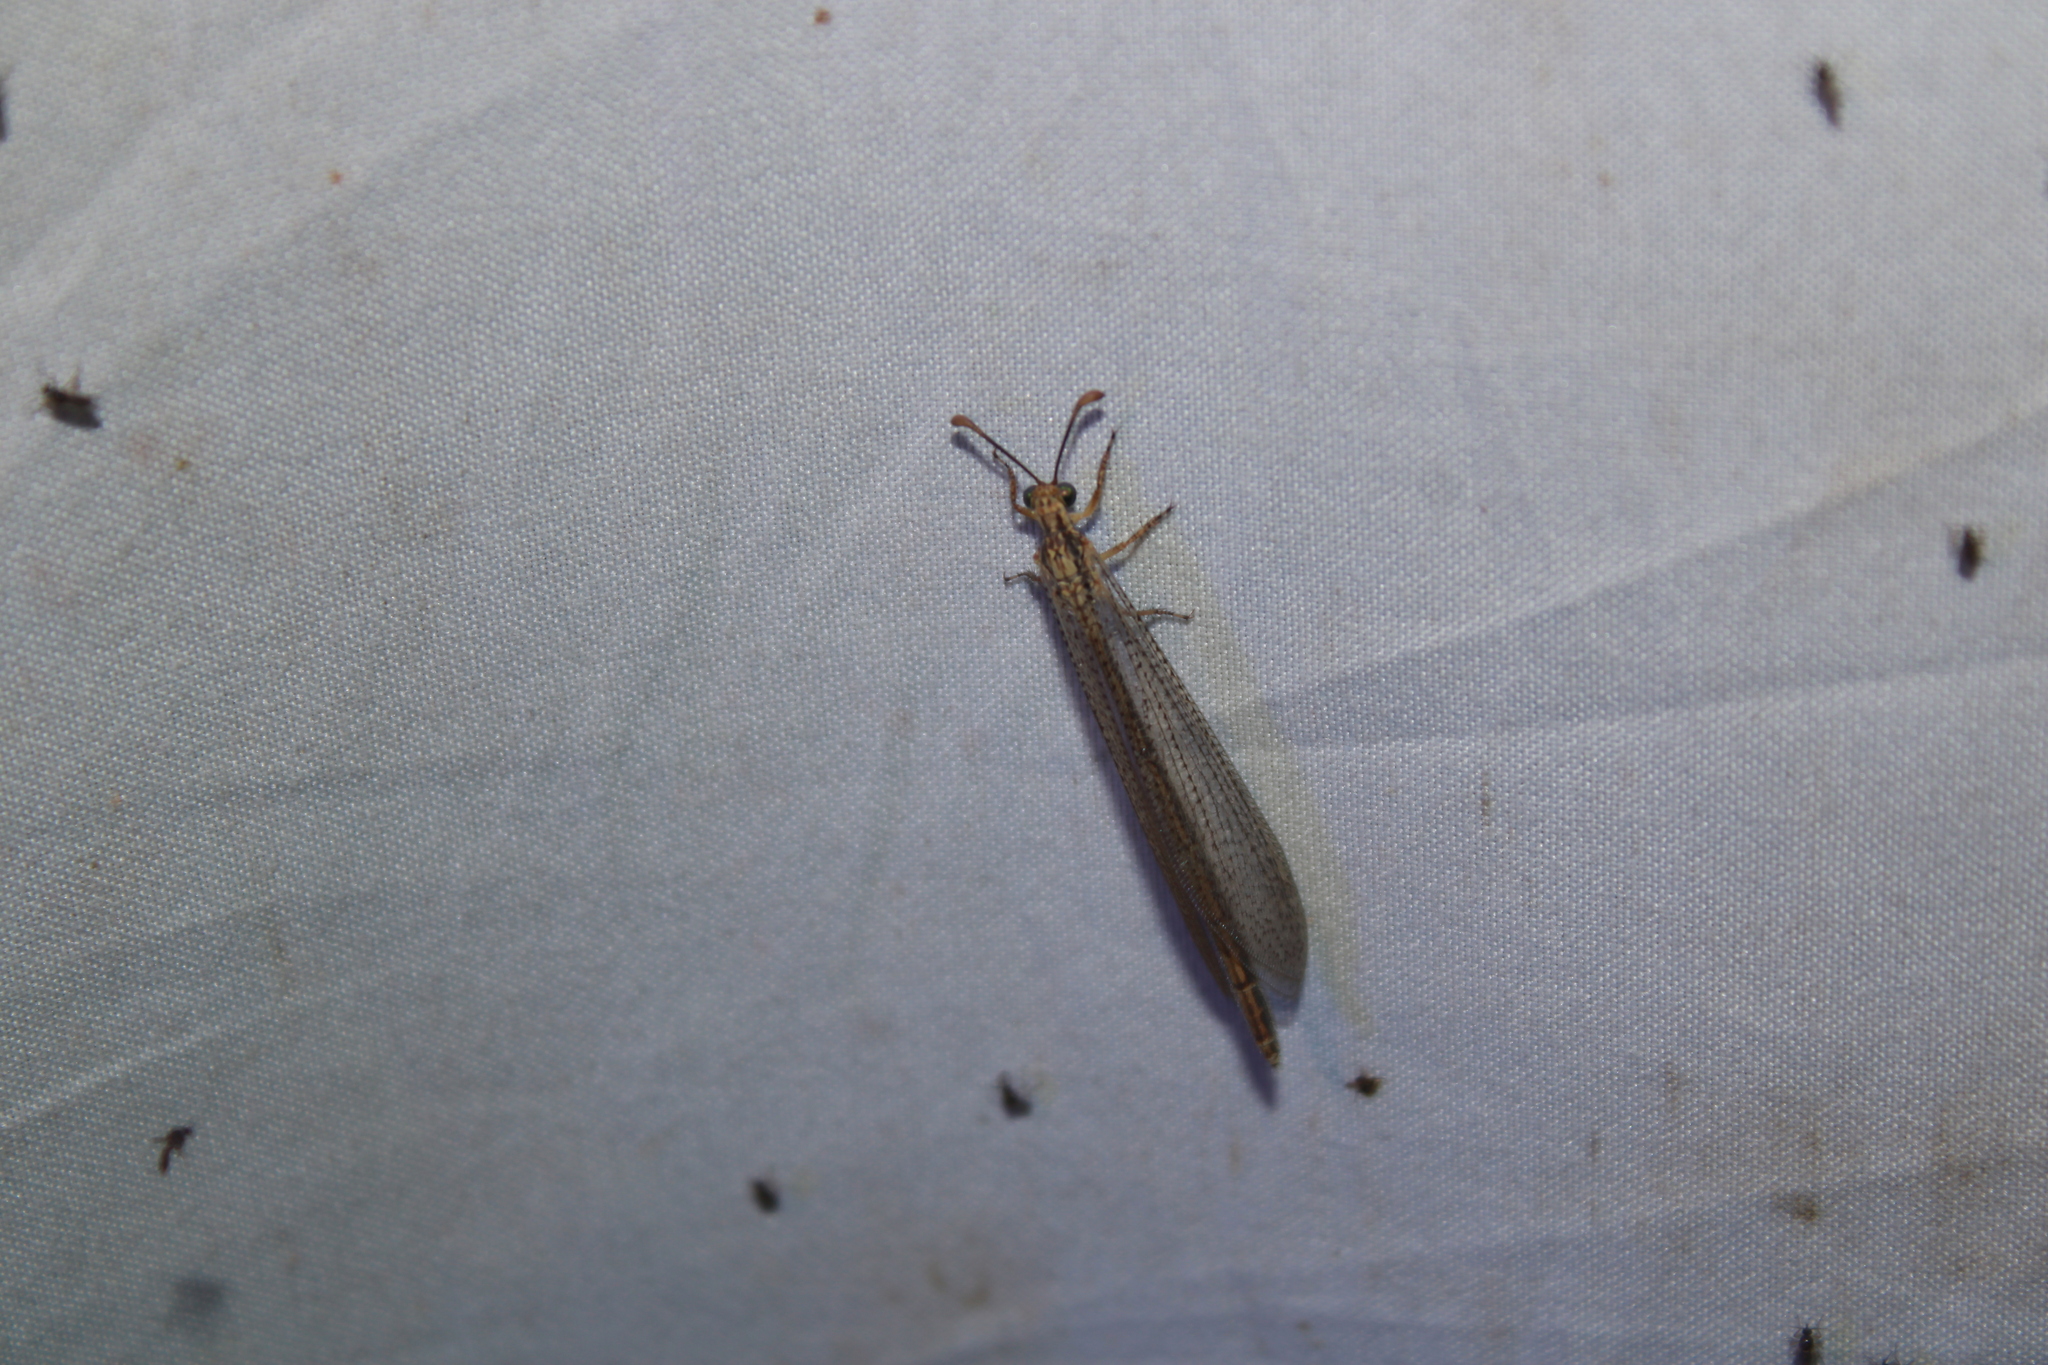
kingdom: Animalia
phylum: Arthropoda
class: Insecta
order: Neuroptera
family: Myrmeleontidae
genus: Brachynemurus
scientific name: Brachynemurus abdominalis
